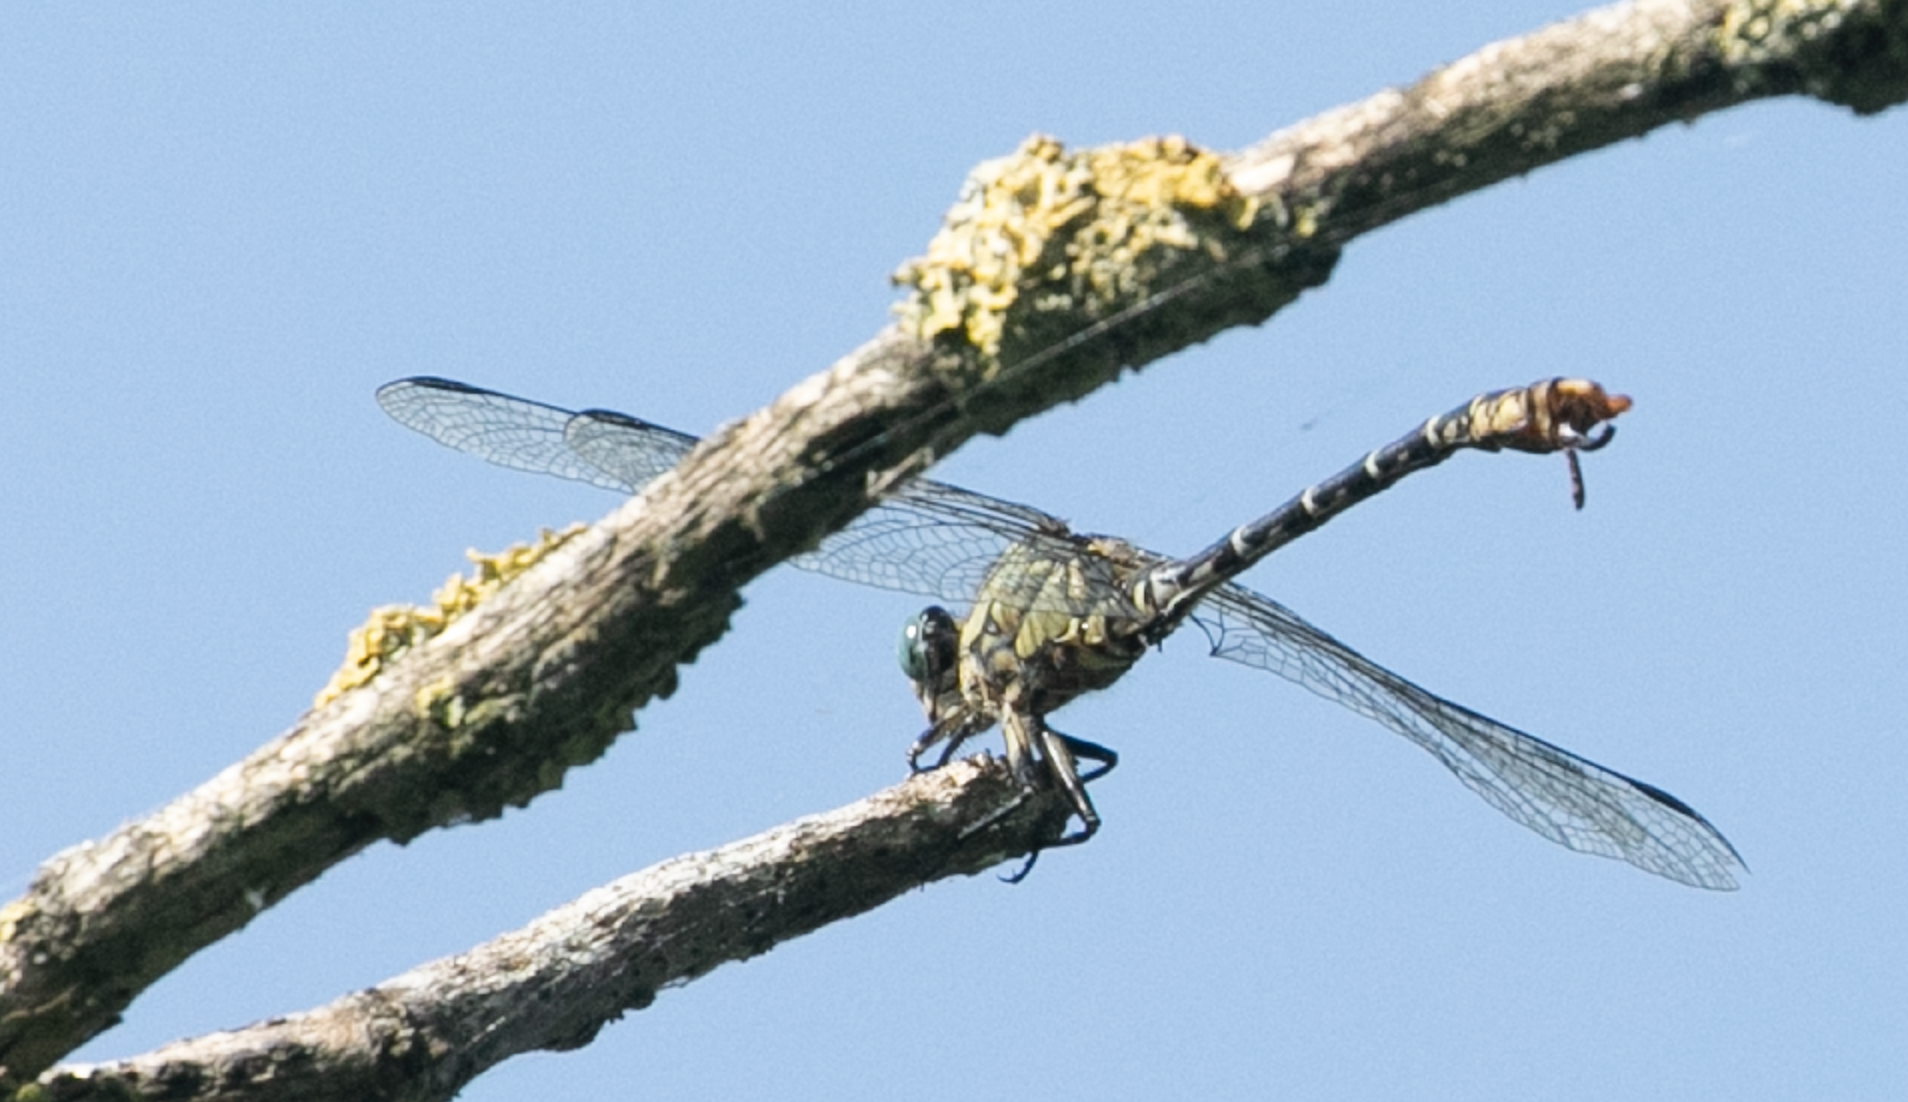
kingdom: Animalia
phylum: Arthropoda
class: Insecta
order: Odonata
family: Gomphidae
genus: Onychogomphus
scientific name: Onychogomphus forcipatus
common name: Small pincertail
